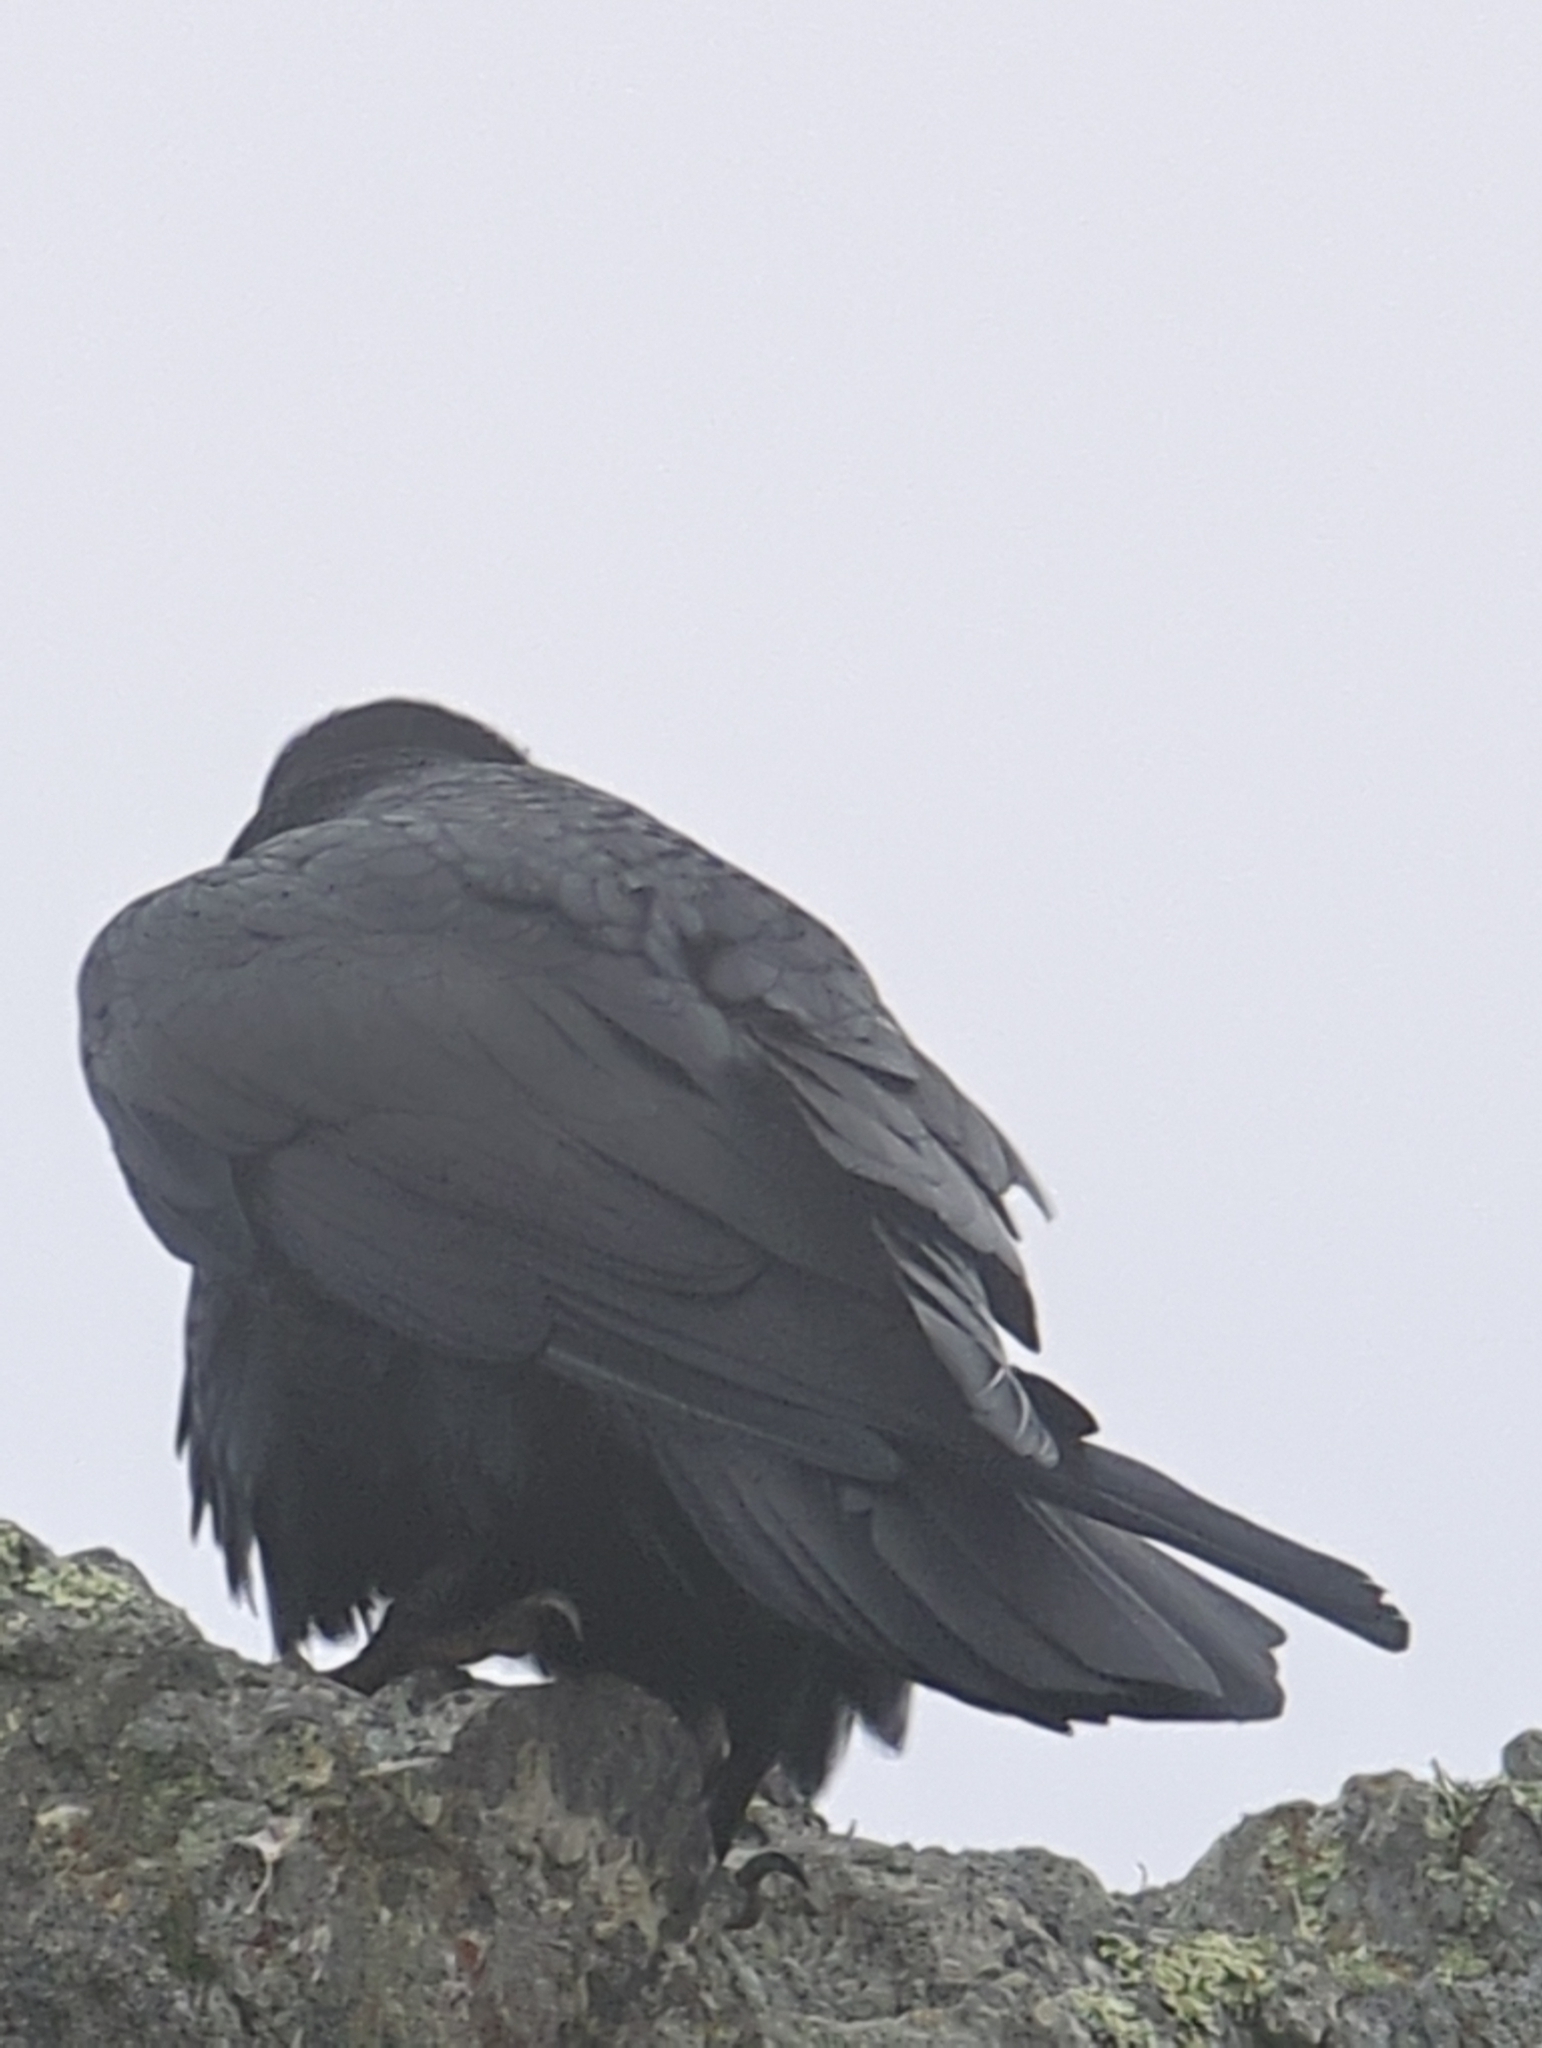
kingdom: Animalia
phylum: Chordata
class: Aves
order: Passeriformes
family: Corvidae
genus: Corvus
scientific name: Corvus corax
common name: Common raven
